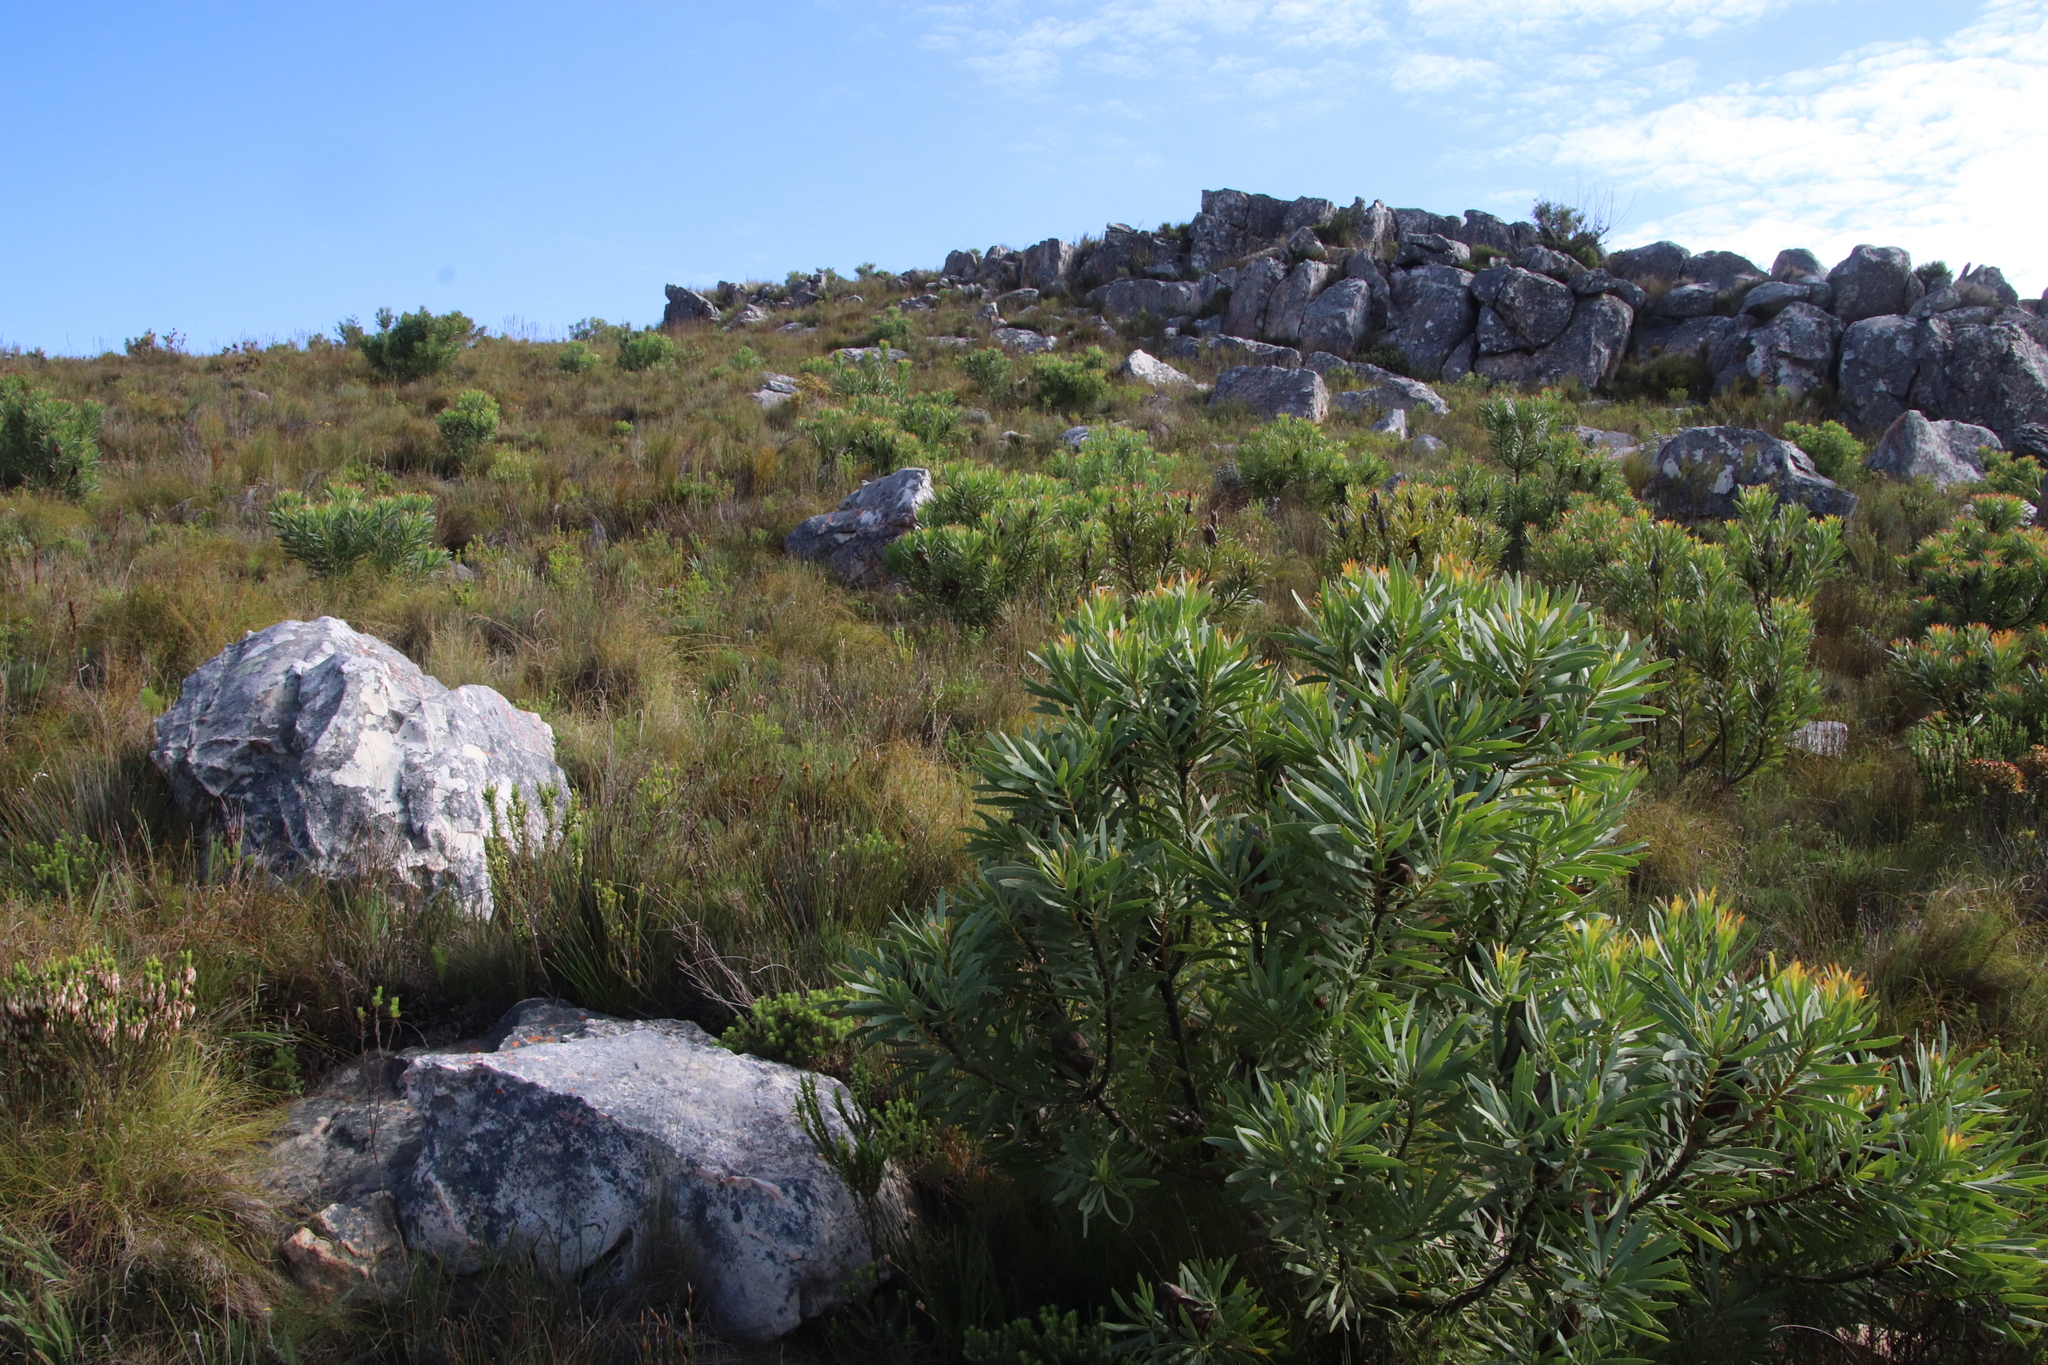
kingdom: Plantae
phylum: Tracheophyta
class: Magnoliopsida
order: Proteales
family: Proteaceae
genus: Protea
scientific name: Protea repens
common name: Sugarbush
